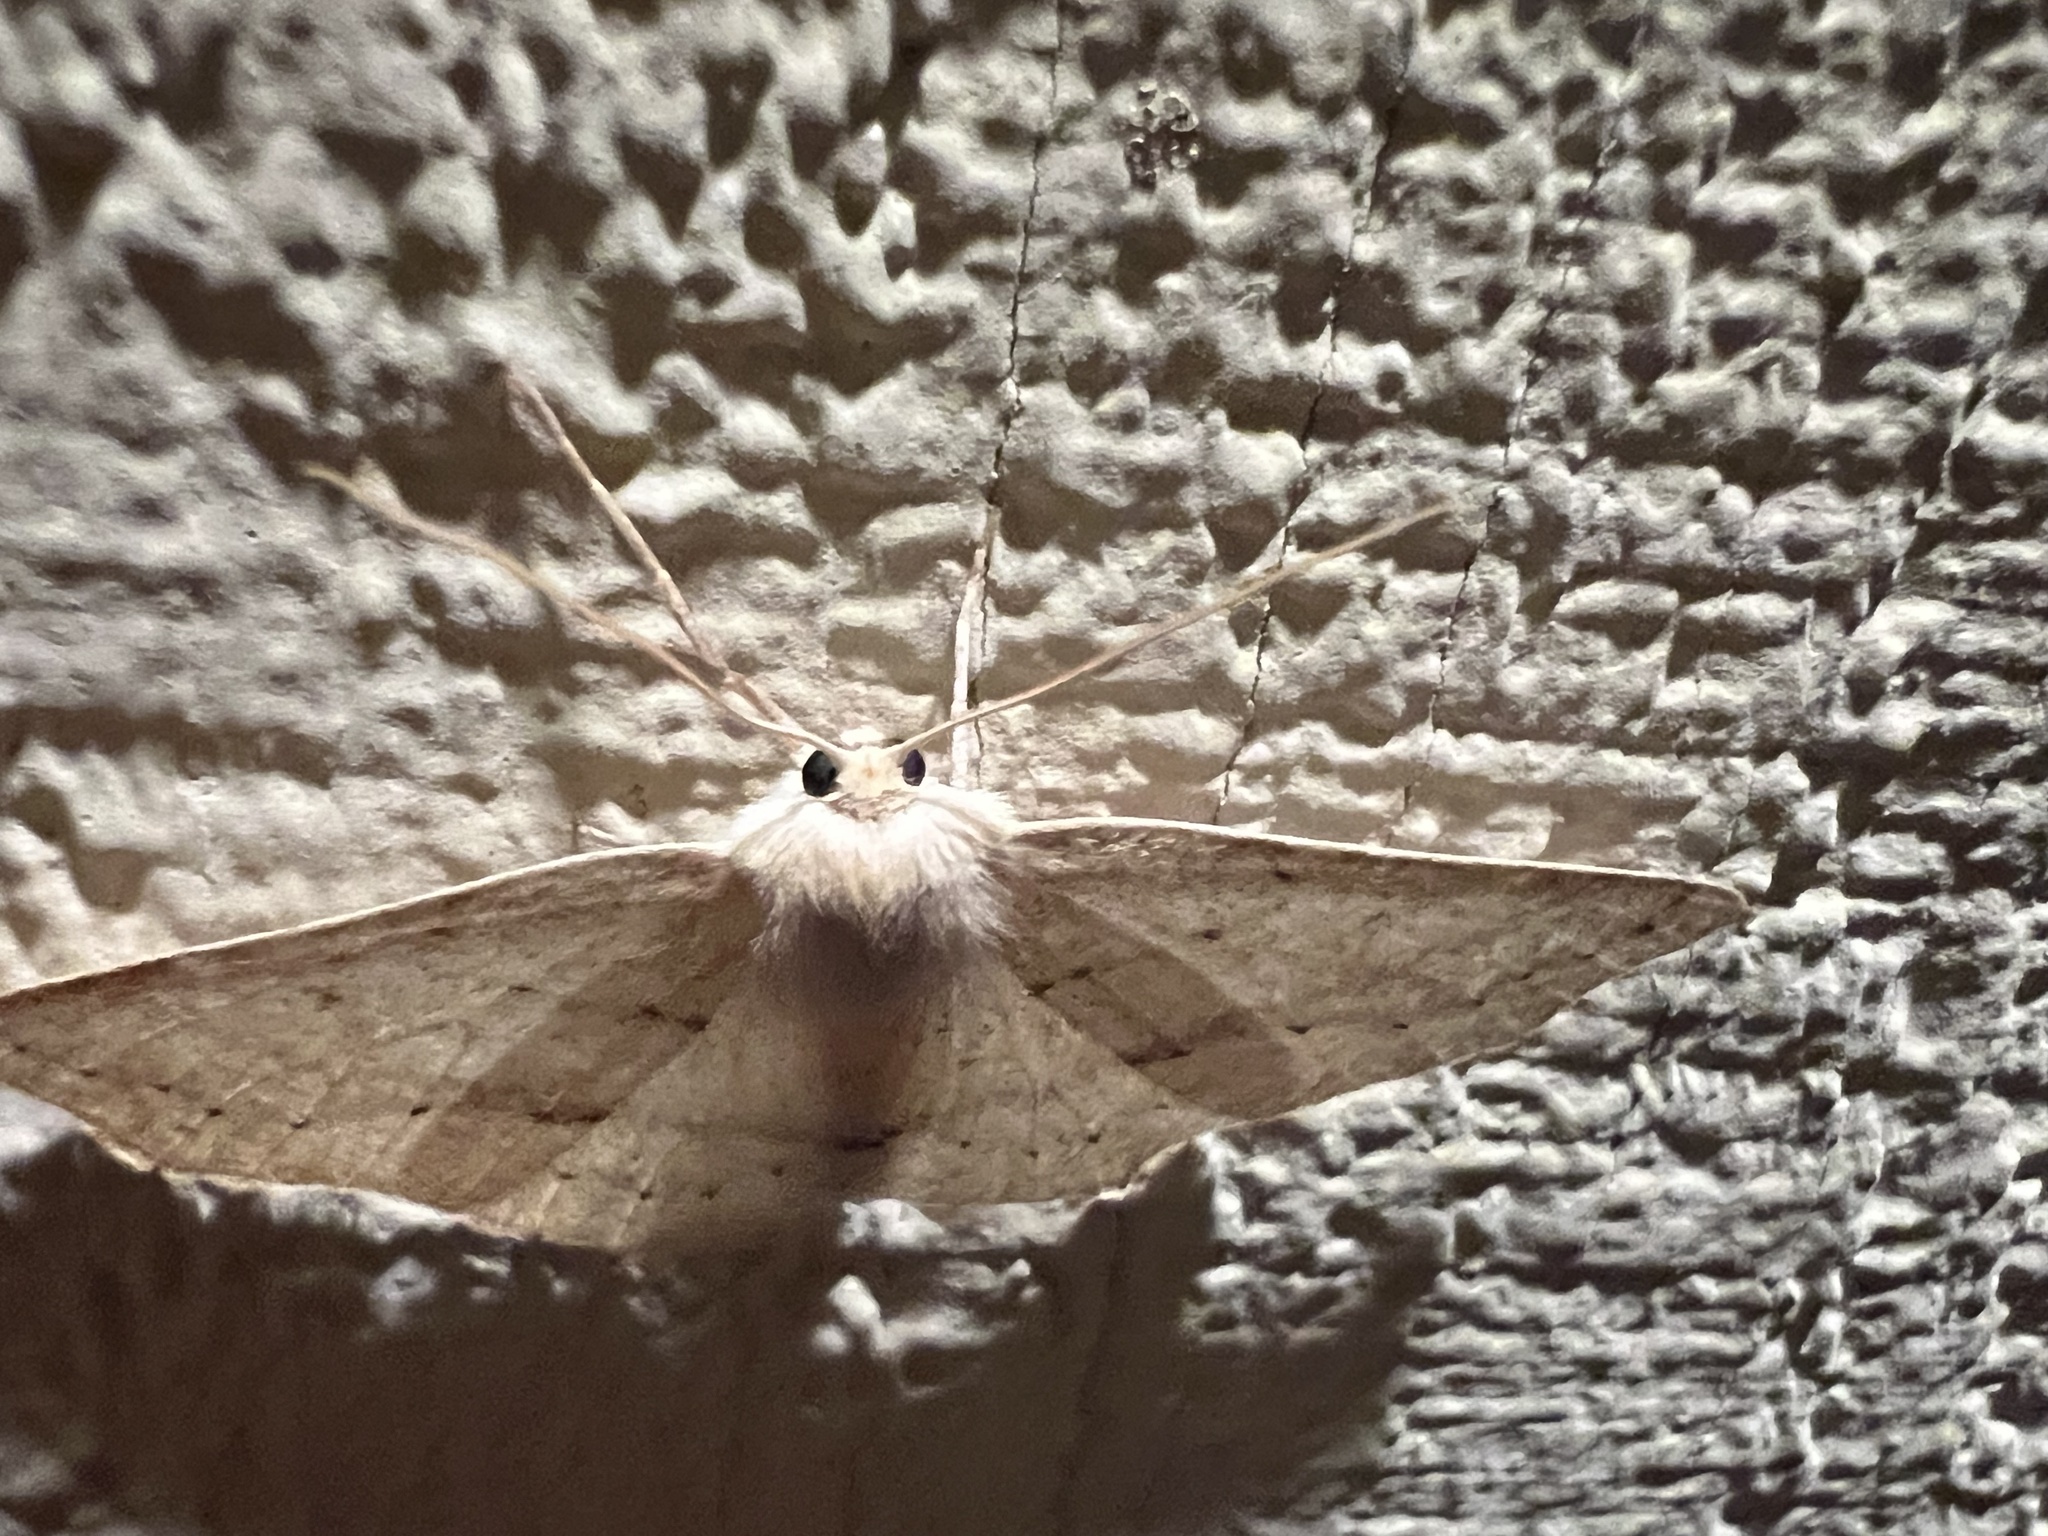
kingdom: Animalia
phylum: Arthropoda
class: Insecta
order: Lepidoptera
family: Geometridae
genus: Sabulodes
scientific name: Sabulodes aegrotata
